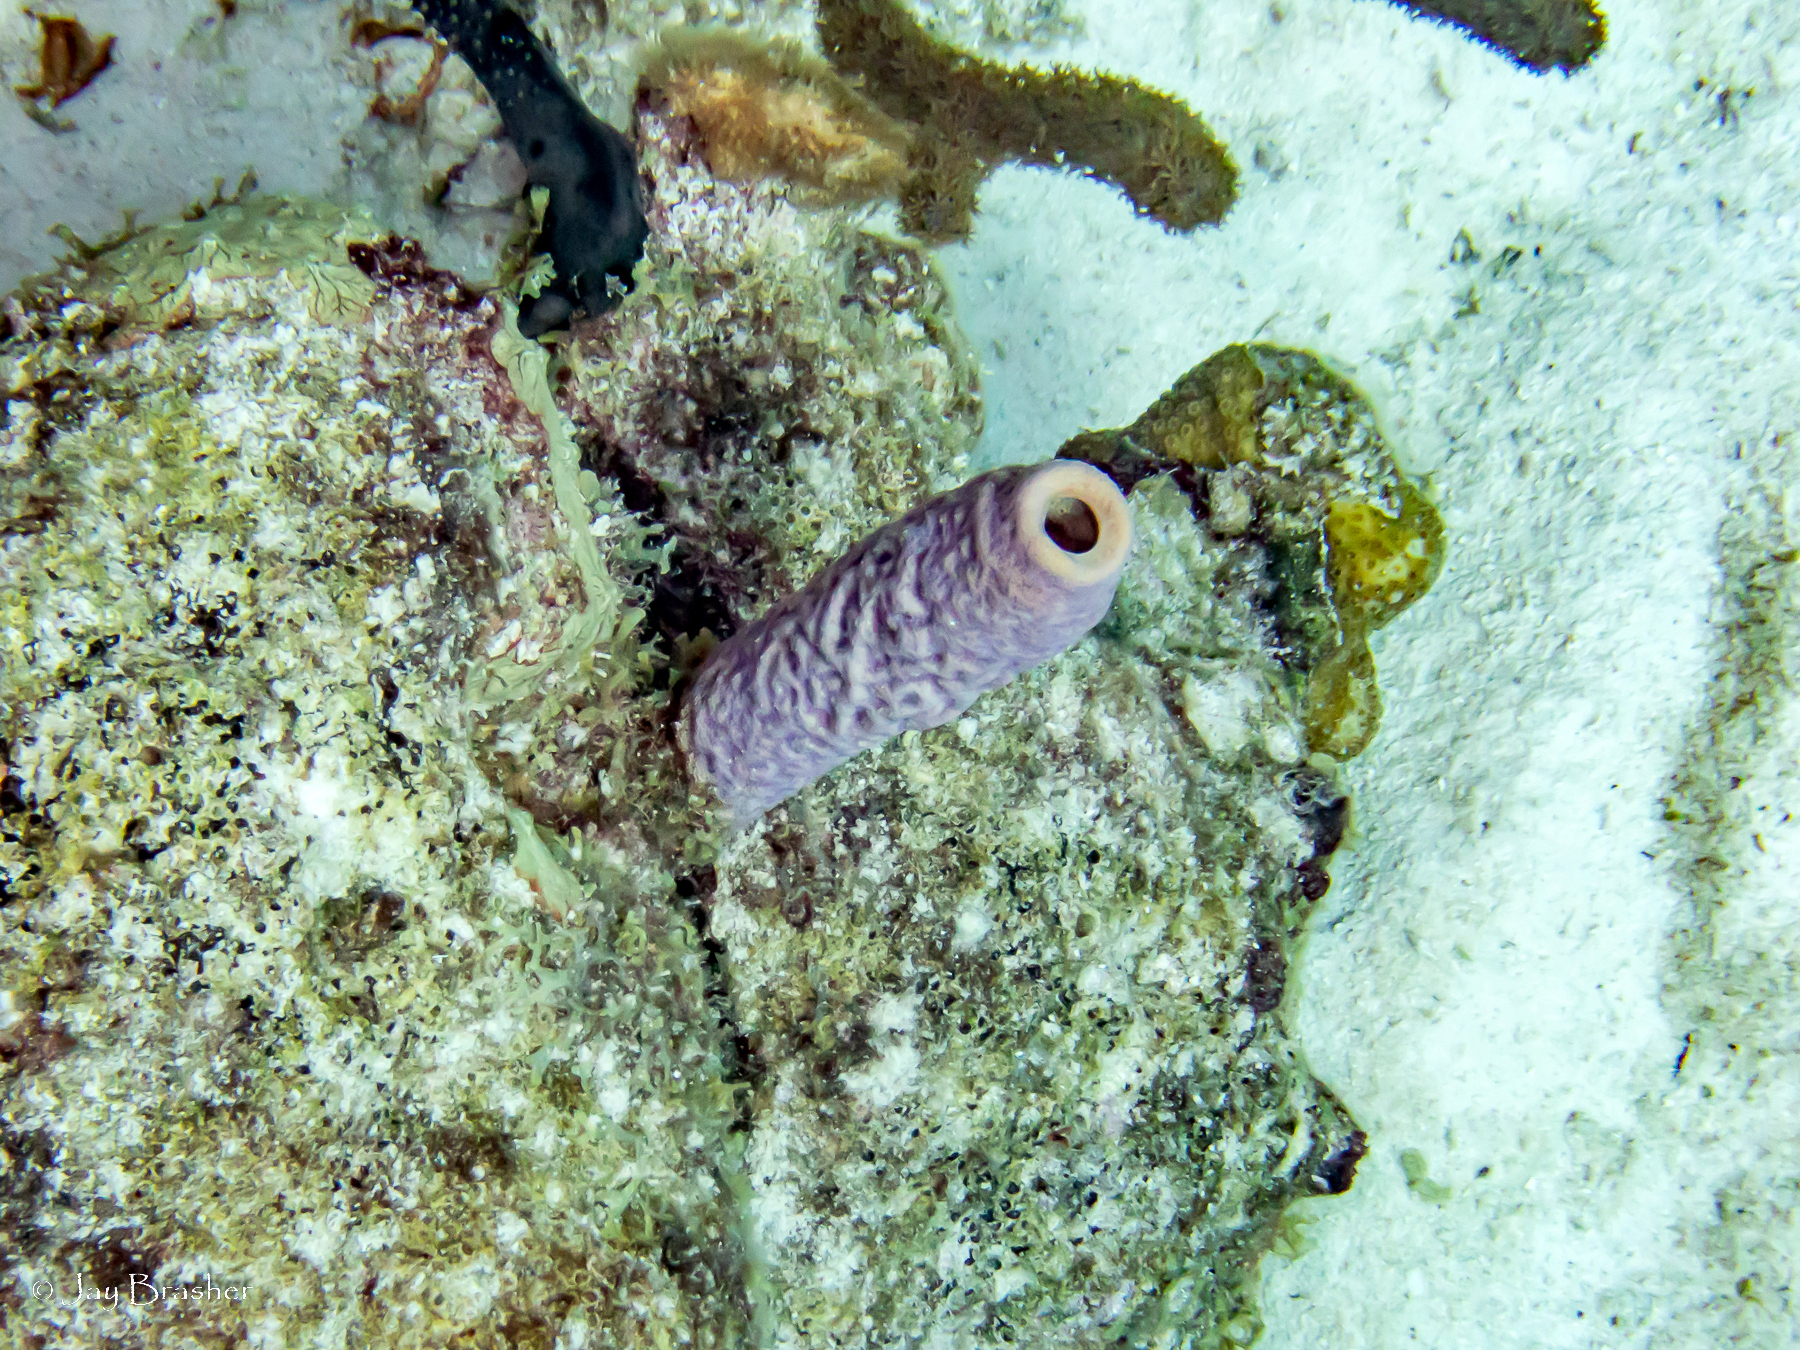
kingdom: Animalia
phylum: Porifera
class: Demospongiae
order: Verongiida
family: Aplysinidae
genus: Aplysina
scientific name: Aplysina archeri
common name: Stove-pipe sponge
